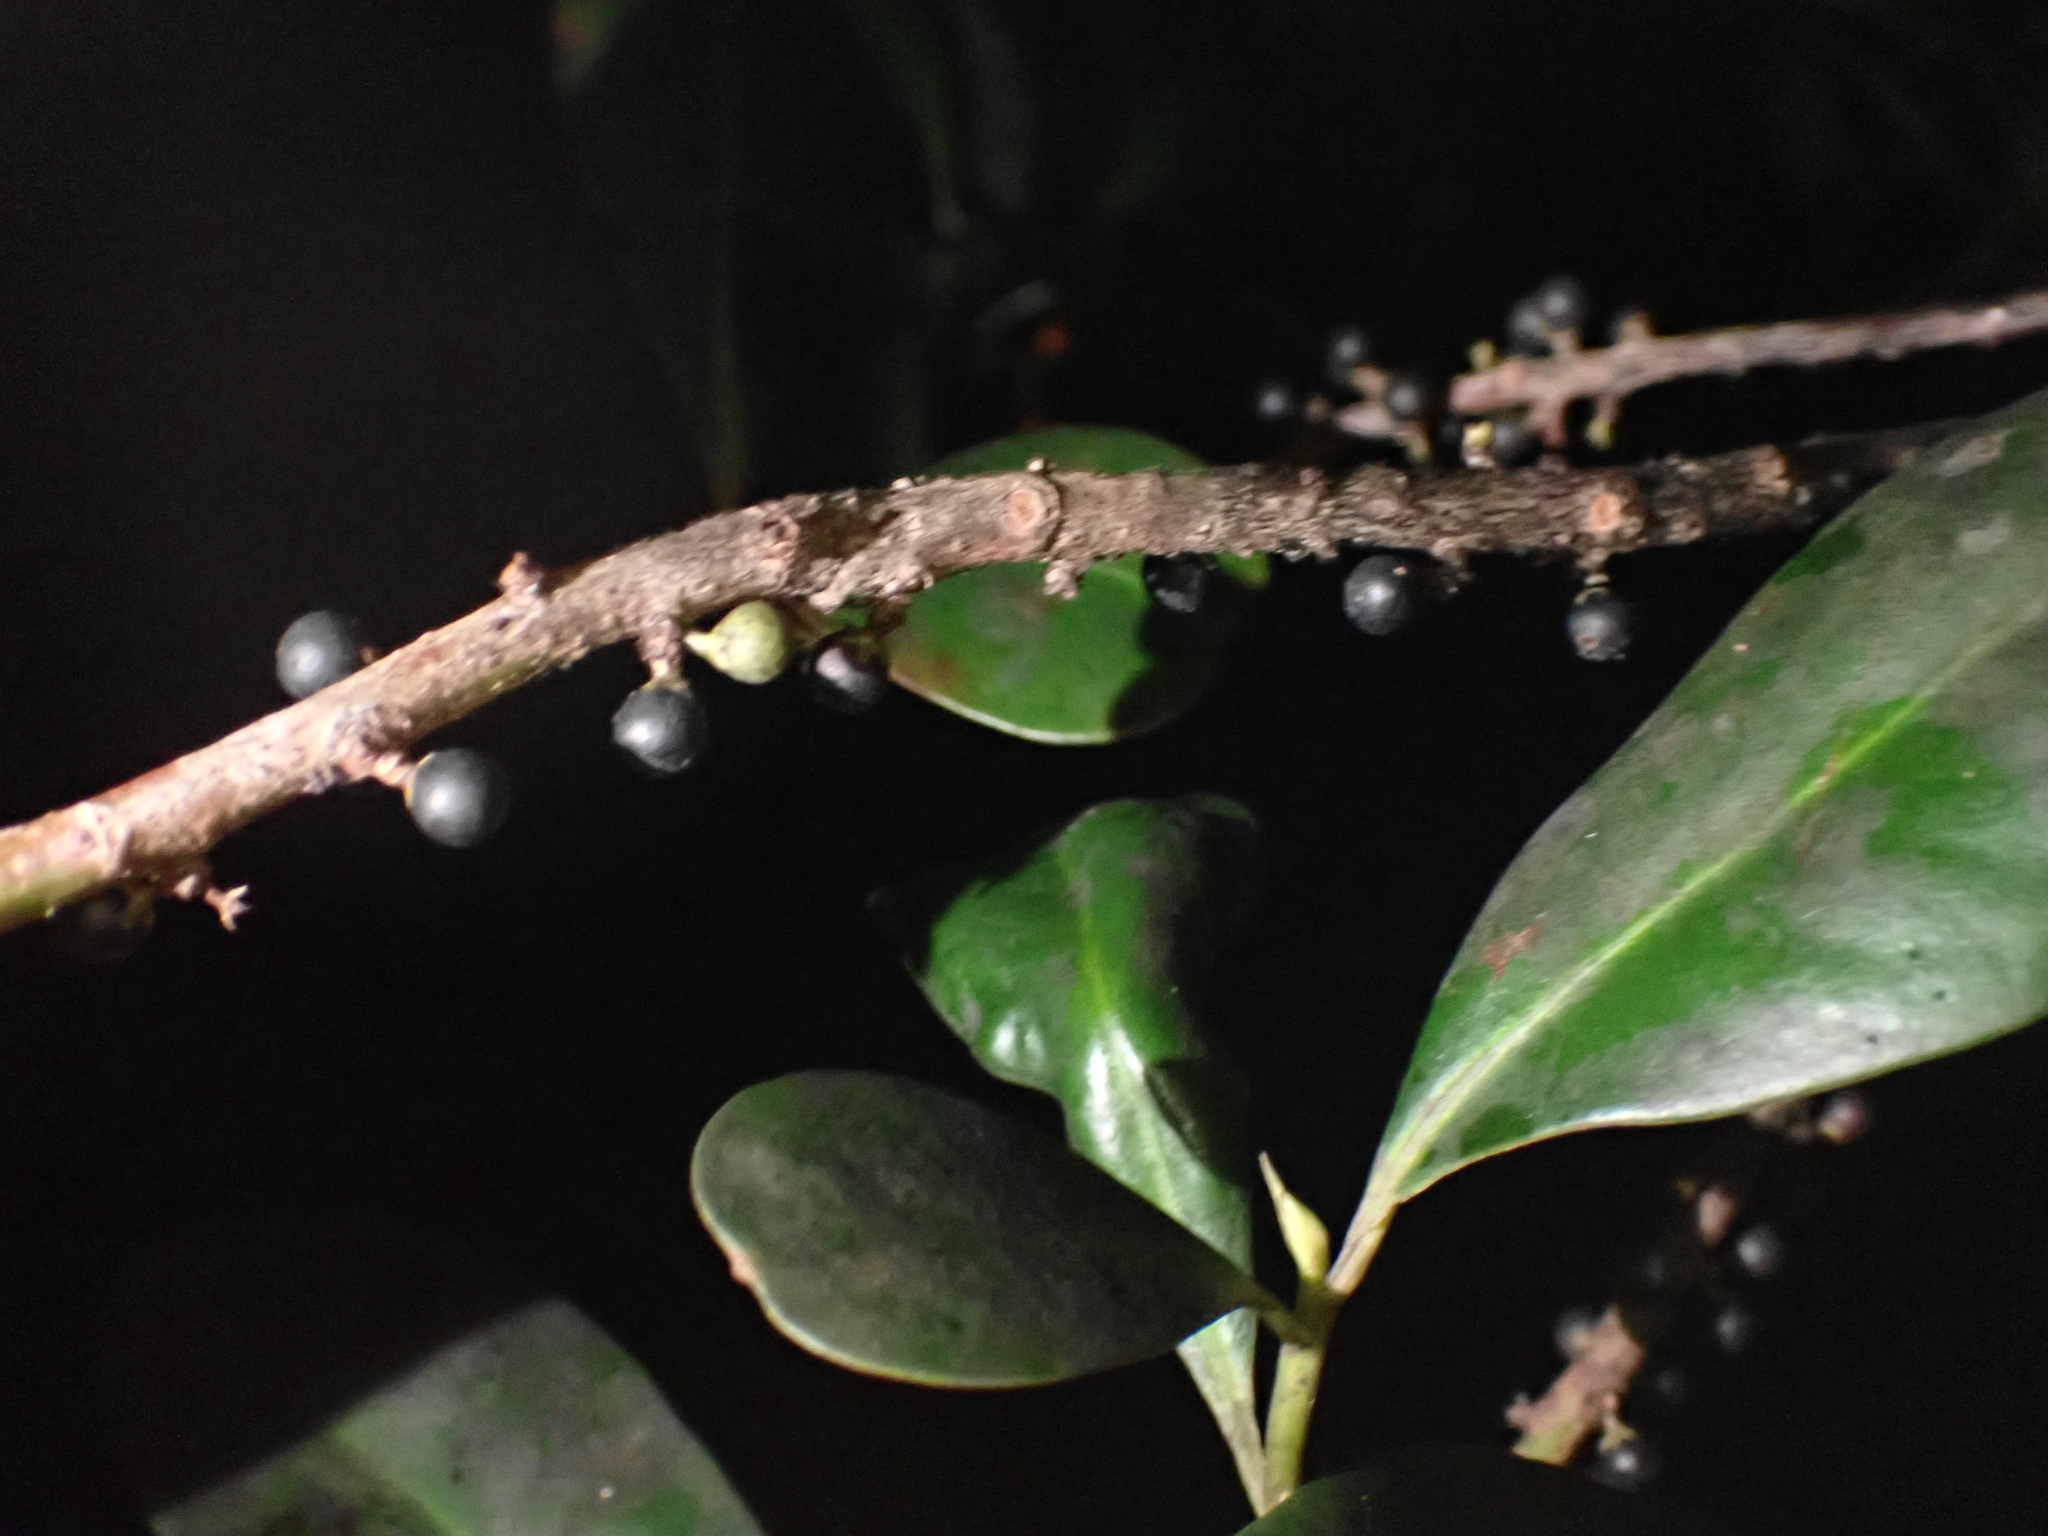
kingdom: Plantae
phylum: Tracheophyta
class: Magnoliopsida
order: Ericales
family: Primulaceae
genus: Myrsine
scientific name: Myrsine floridana
